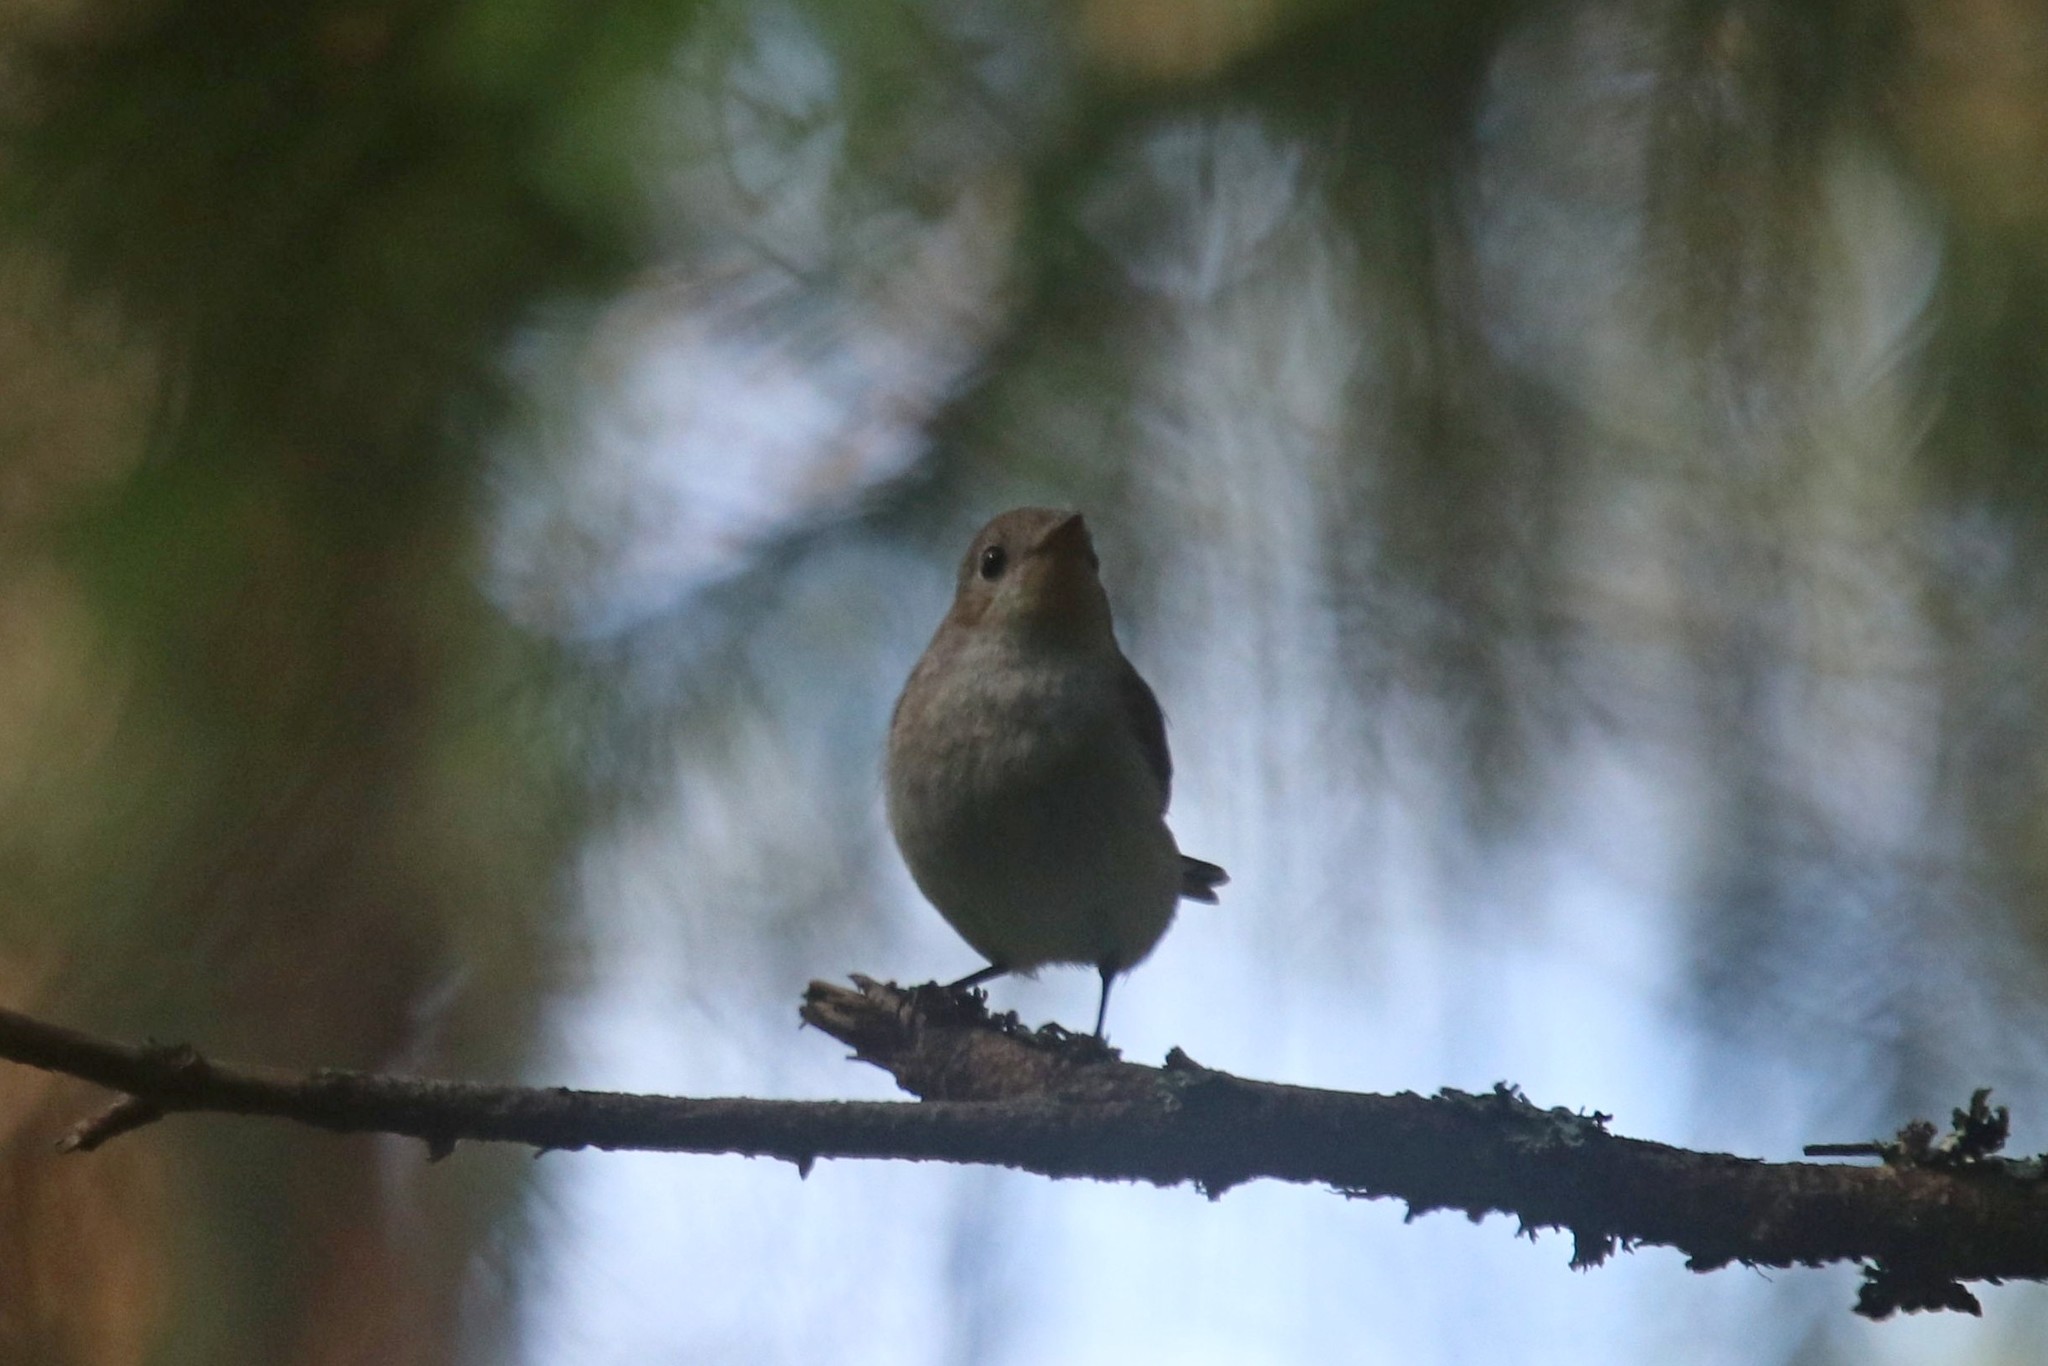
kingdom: Animalia
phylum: Chordata
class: Aves
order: Passeriformes
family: Muscicapidae
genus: Ficedula
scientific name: Ficedula parva
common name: Red-breasted flycatcher
